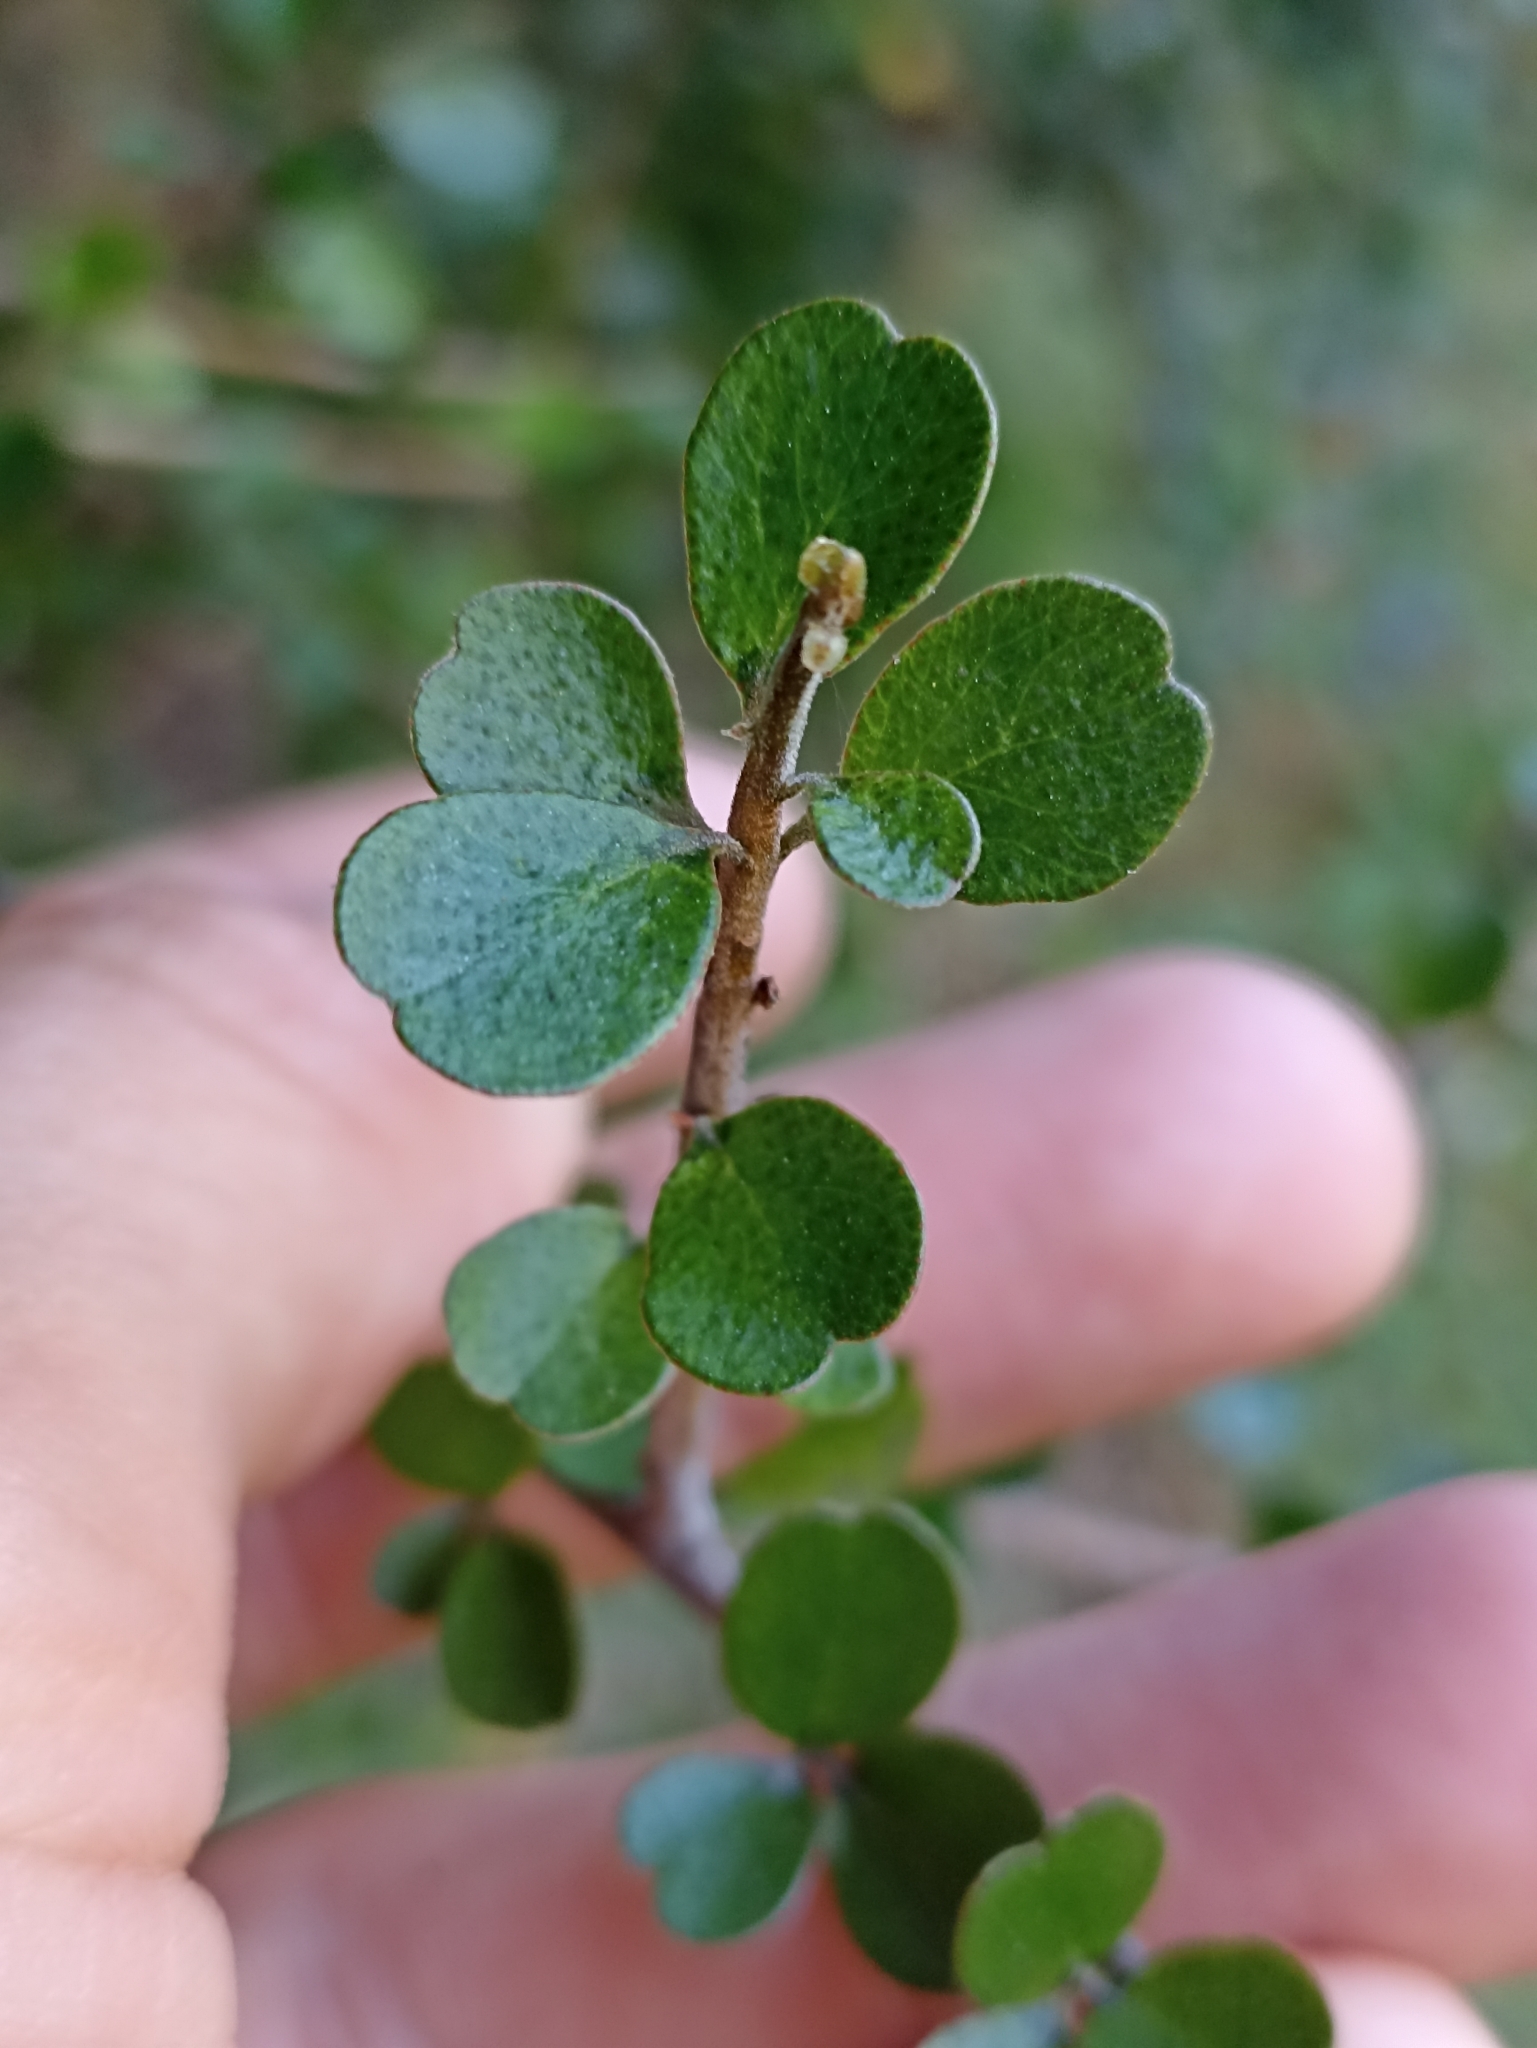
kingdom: Plantae
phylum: Tracheophyta
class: Magnoliopsida
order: Ericales
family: Primulaceae
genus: Myrsine
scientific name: Myrsine divaricata
